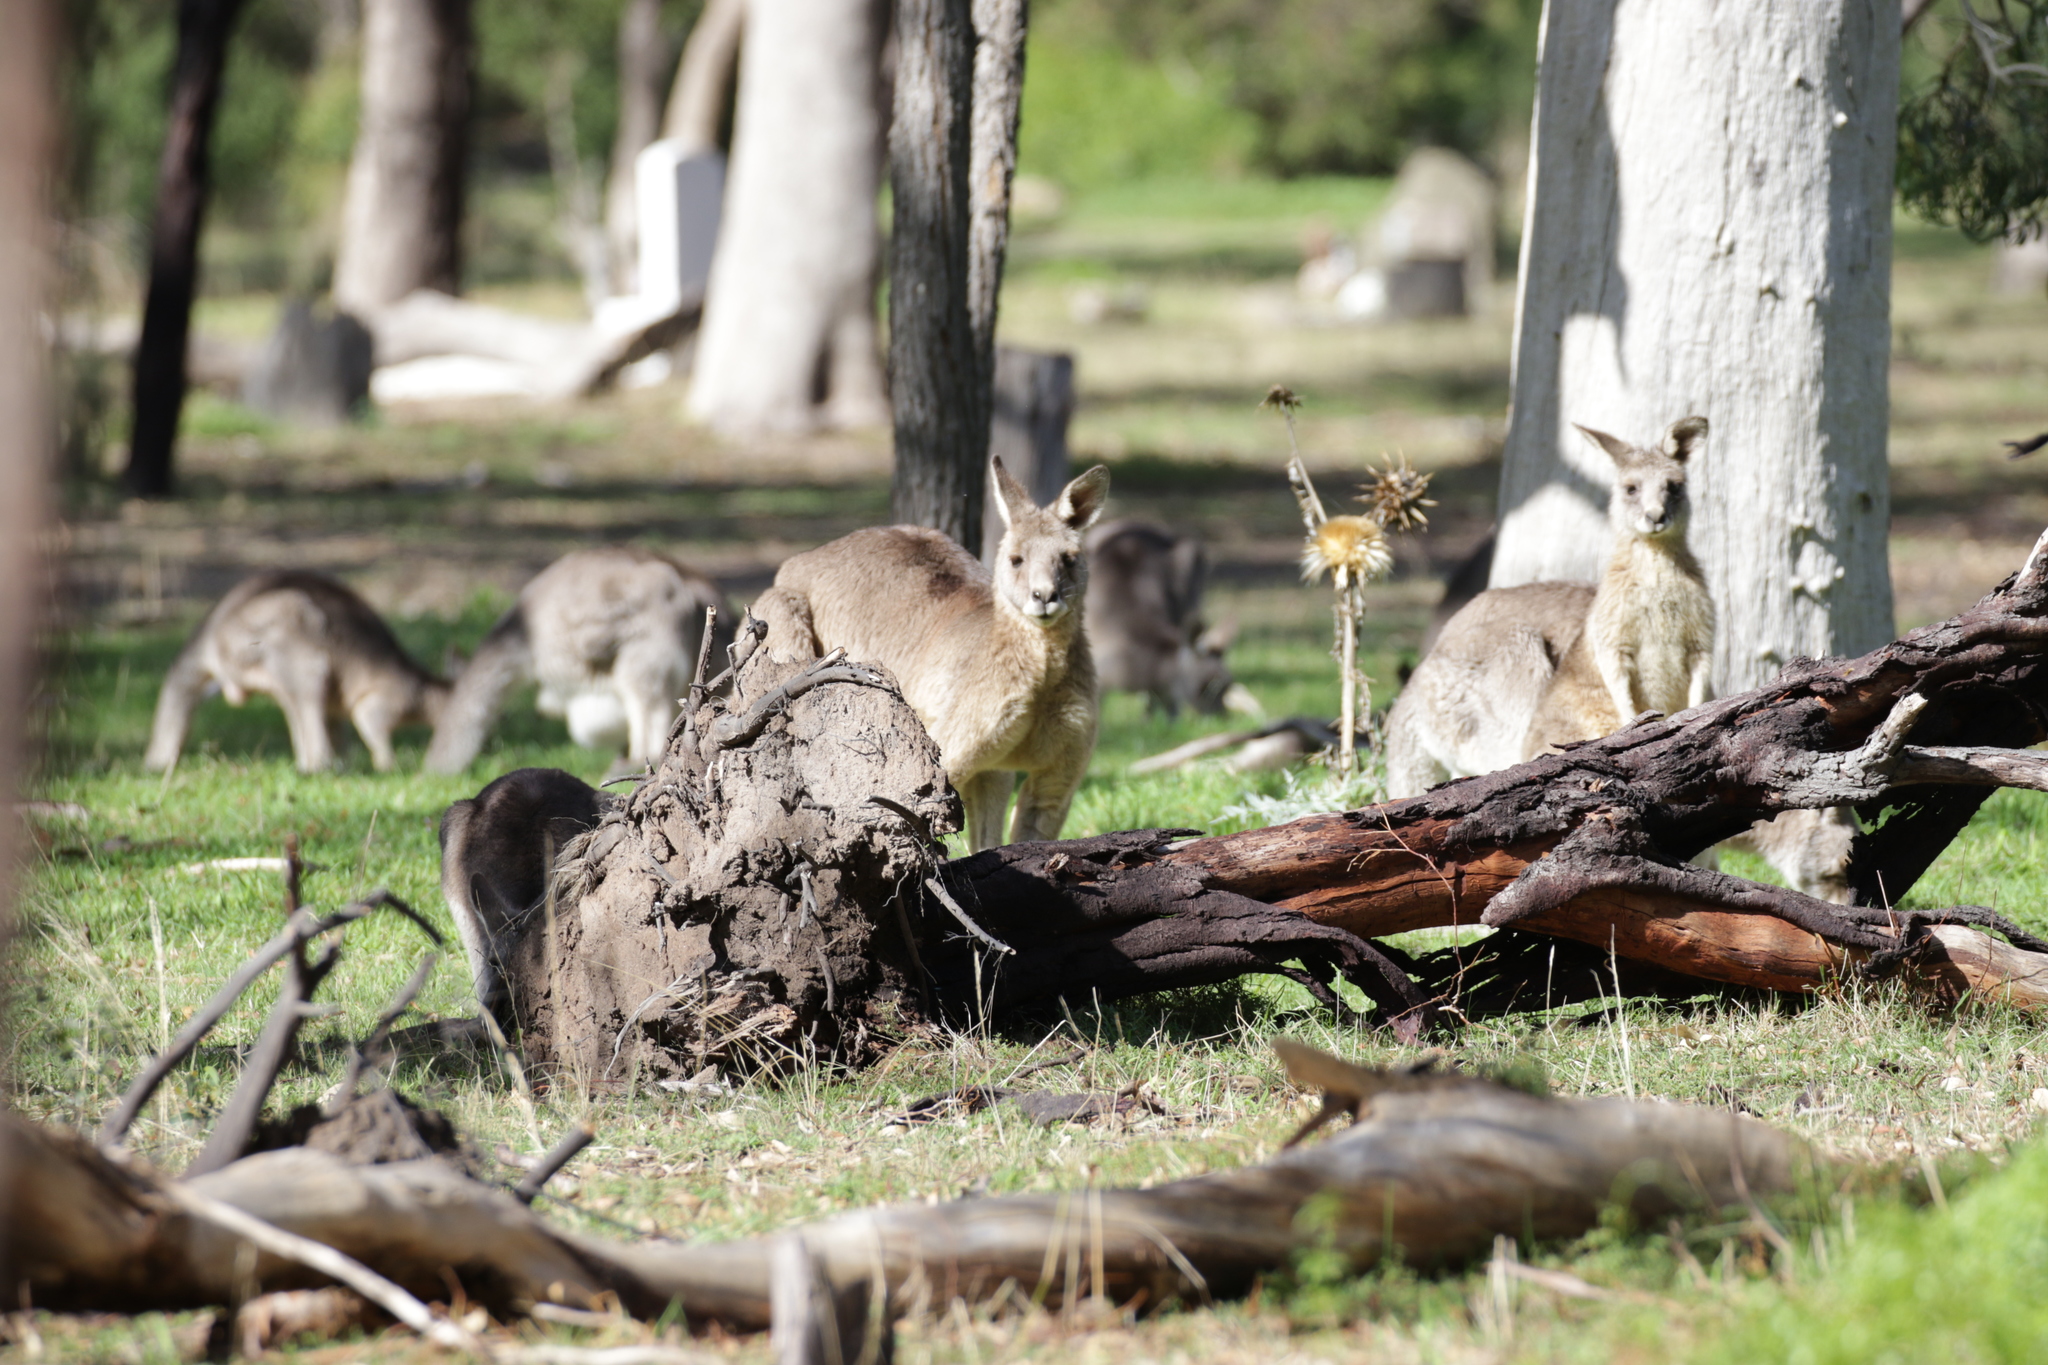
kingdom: Animalia
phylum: Chordata
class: Mammalia
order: Diprotodontia
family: Macropodidae
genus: Macropus
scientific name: Macropus giganteus
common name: Eastern grey kangaroo
